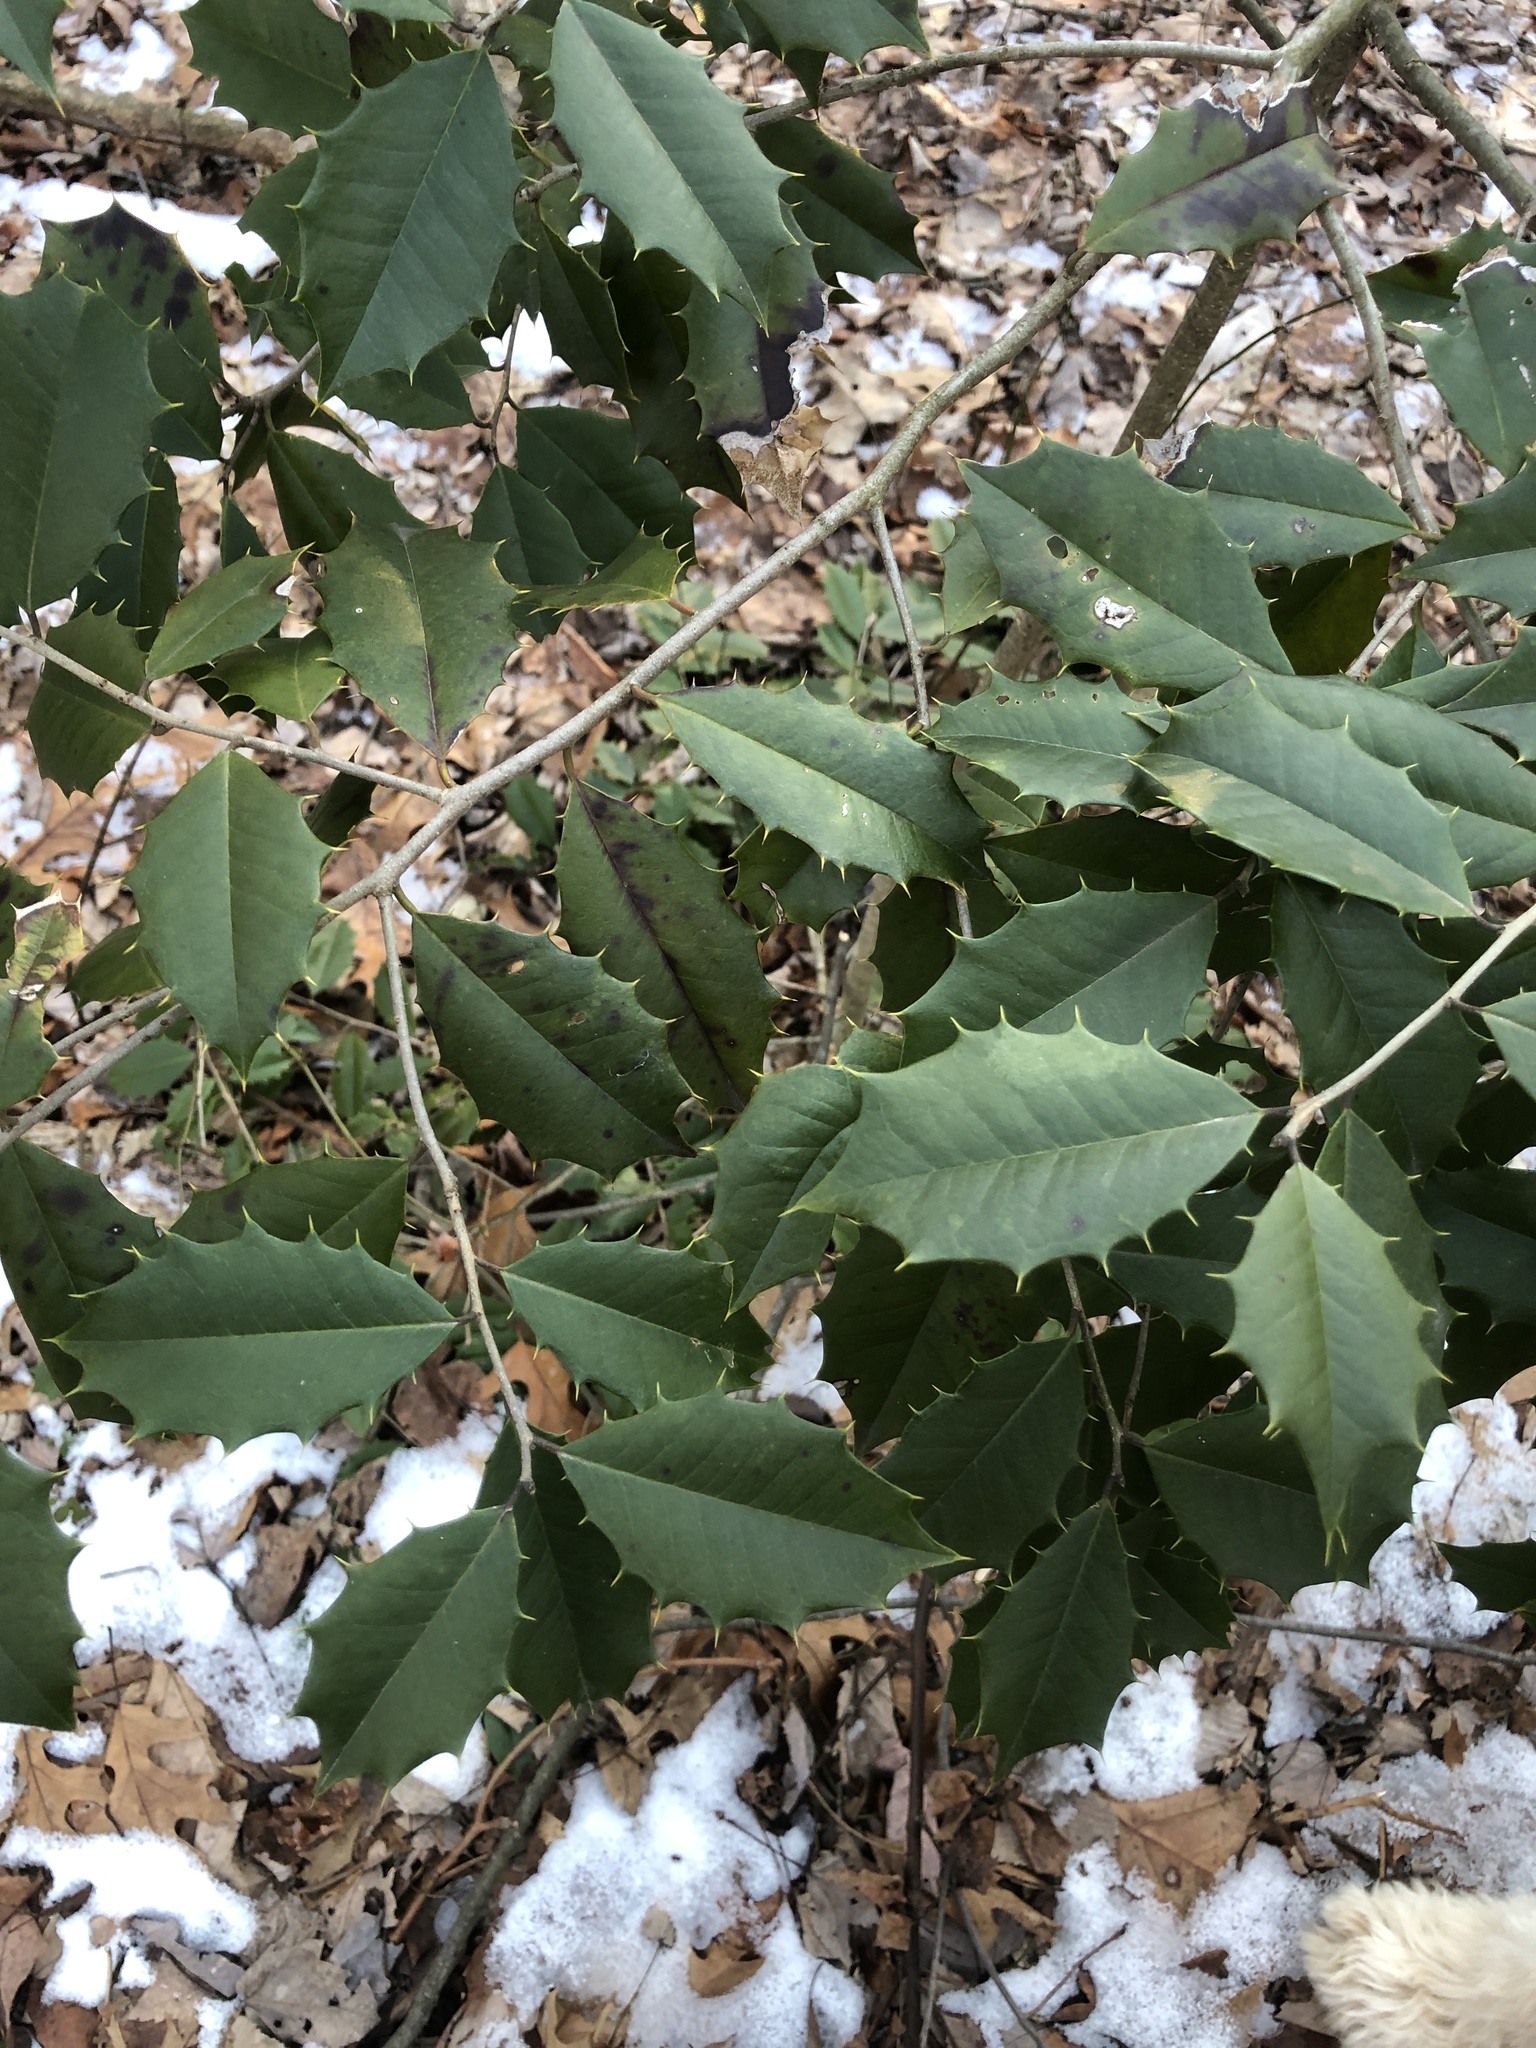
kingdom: Plantae
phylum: Tracheophyta
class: Magnoliopsida
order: Aquifoliales
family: Aquifoliaceae
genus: Ilex
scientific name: Ilex opaca
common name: American holly
